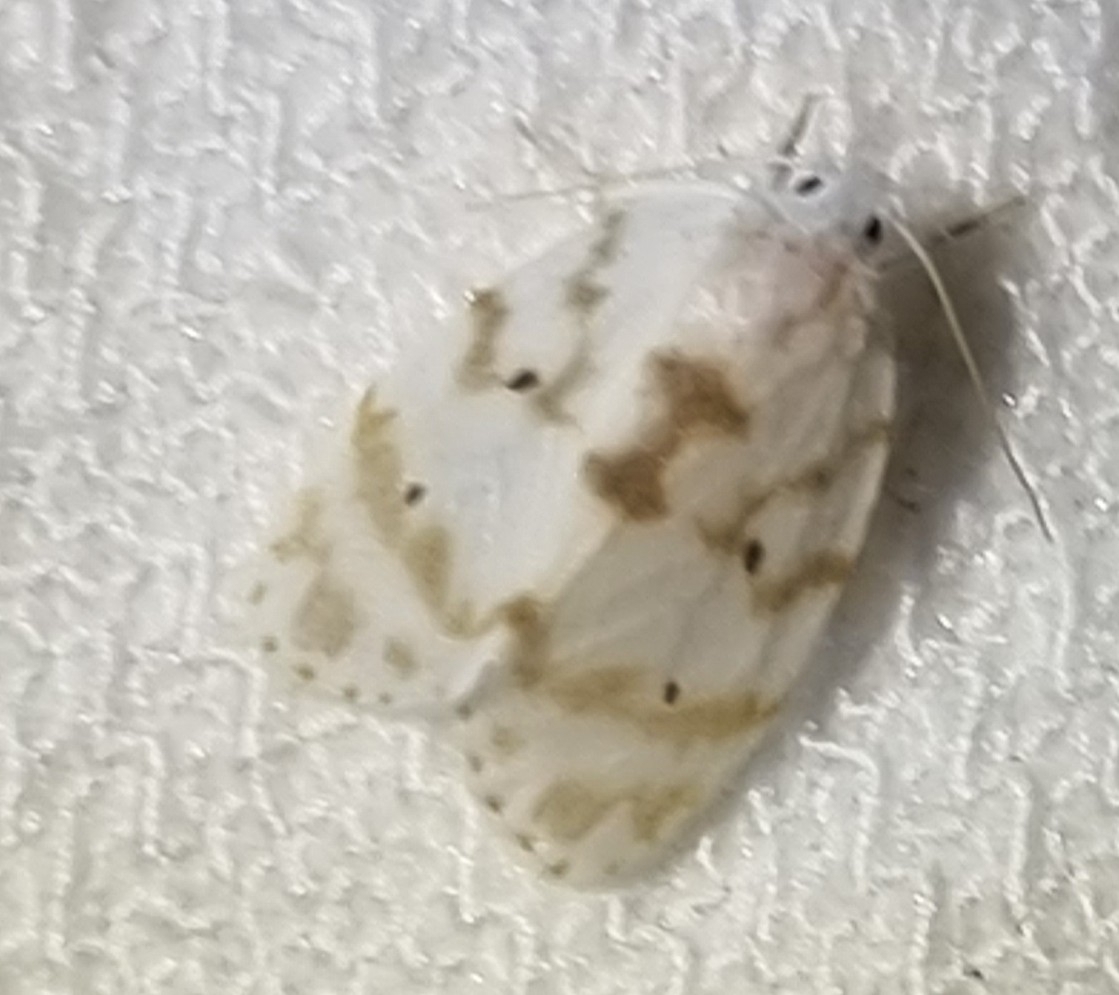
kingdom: Animalia
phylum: Arthropoda
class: Insecta
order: Lepidoptera
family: Erebidae
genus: Schistophleps
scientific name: Schistophleps albida
